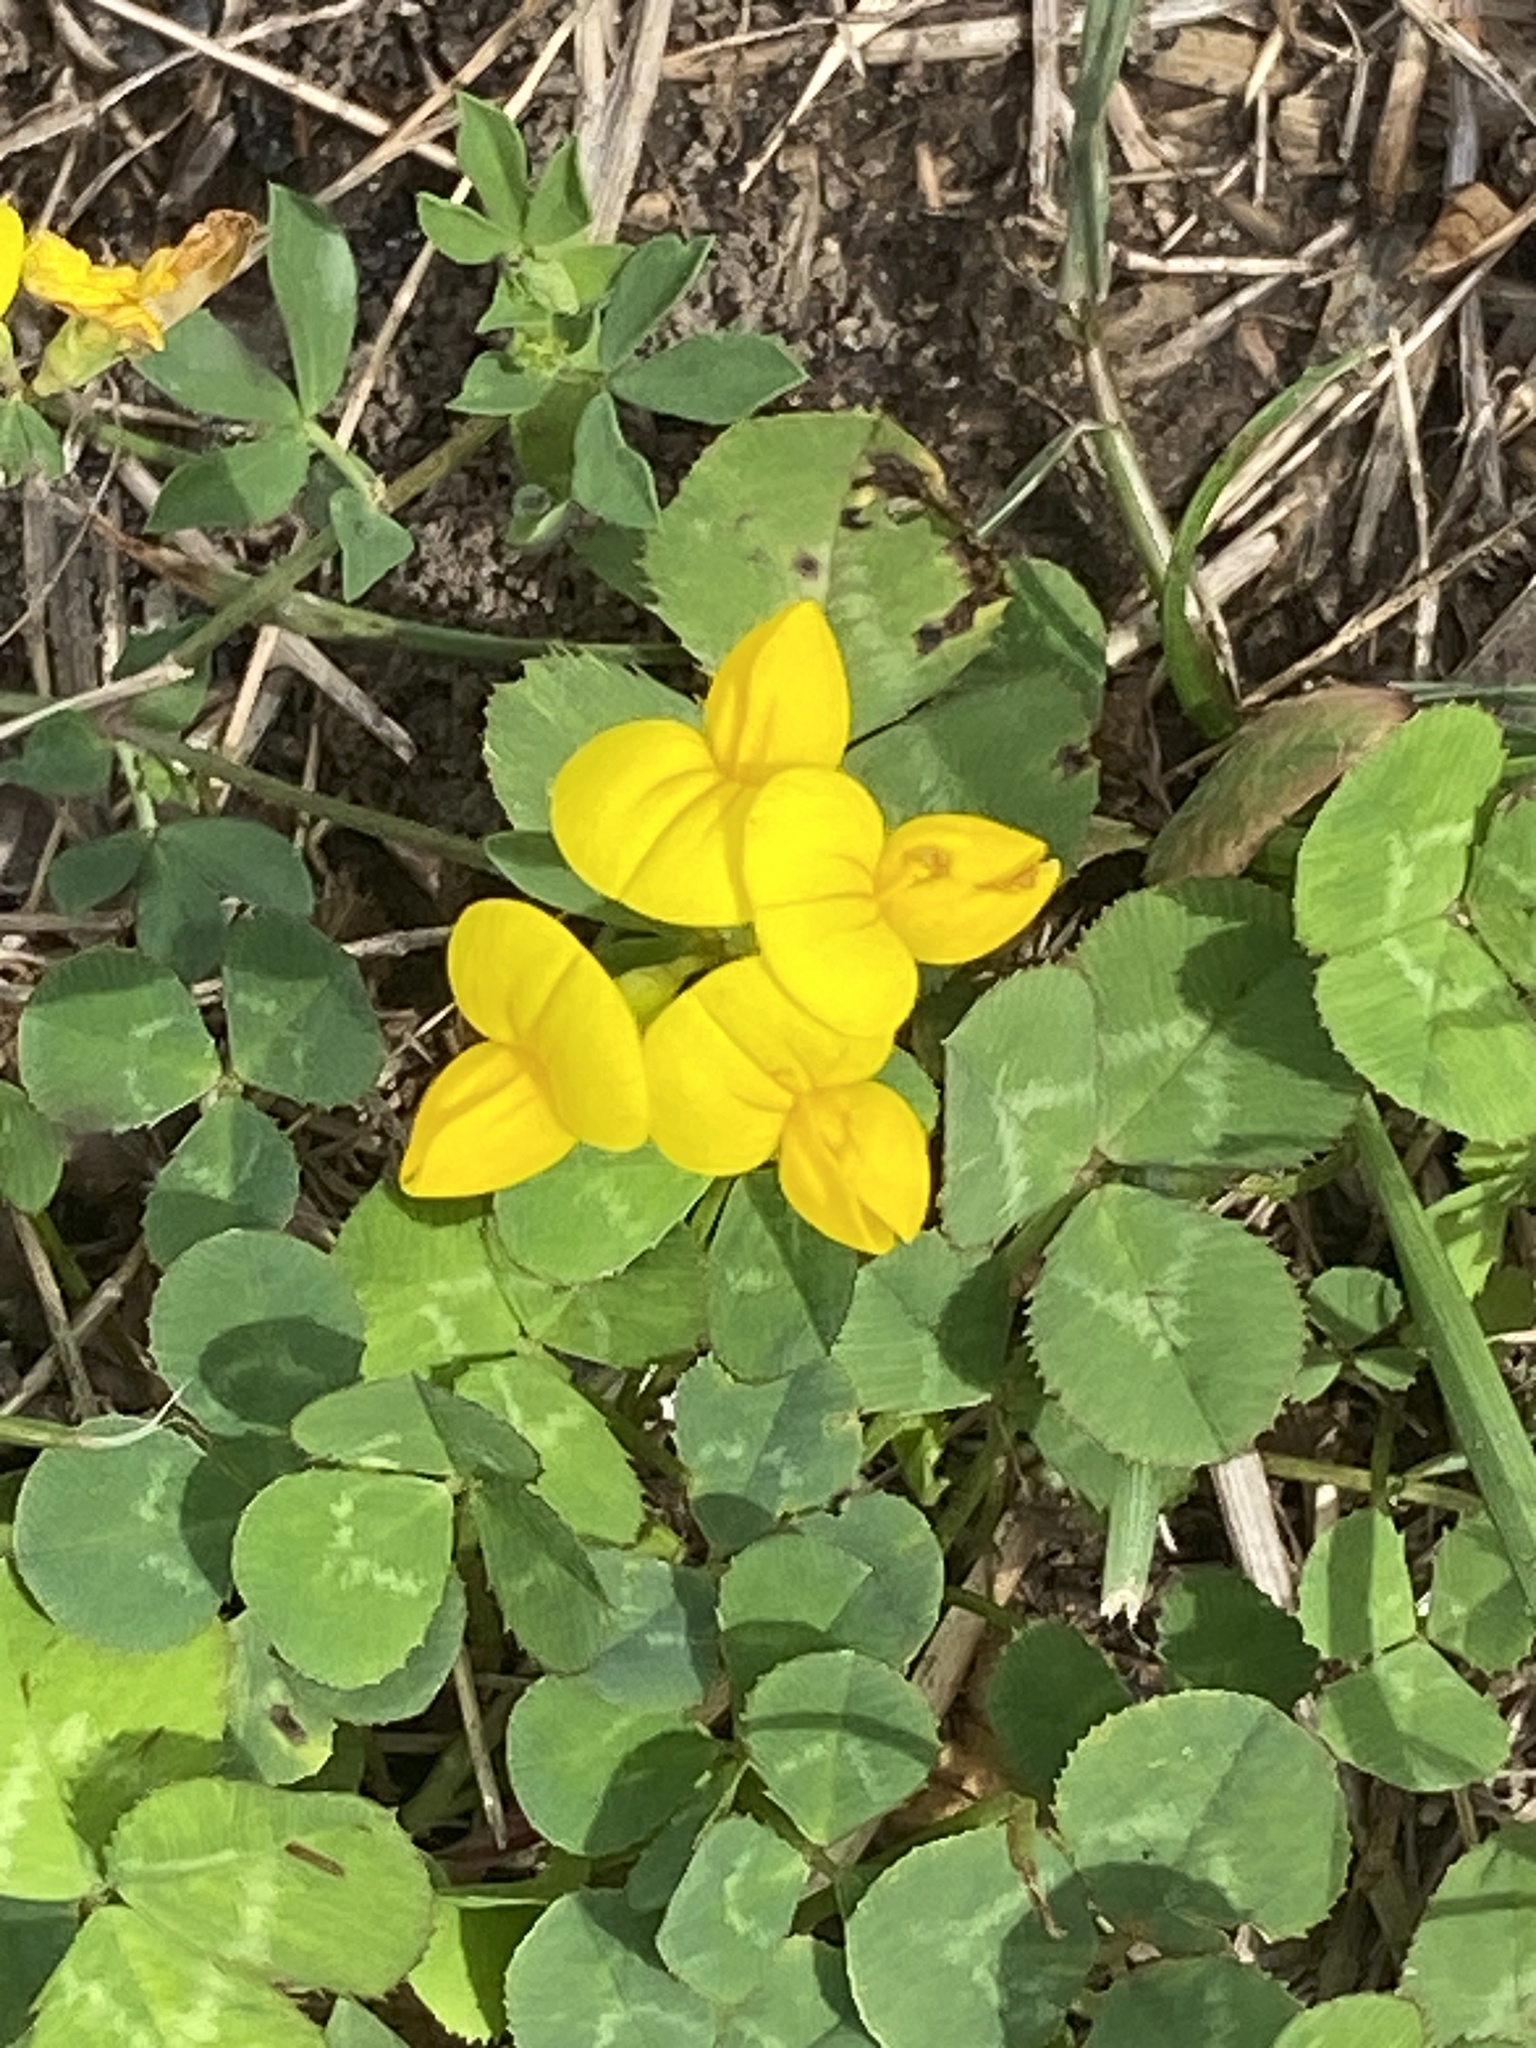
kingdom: Plantae
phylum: Tracheophyta
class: Magnoliopsida
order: Fabales
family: Fabaceae
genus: Lotus
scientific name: Lotus corniculatus
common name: Common bird's-foot-trefoil
